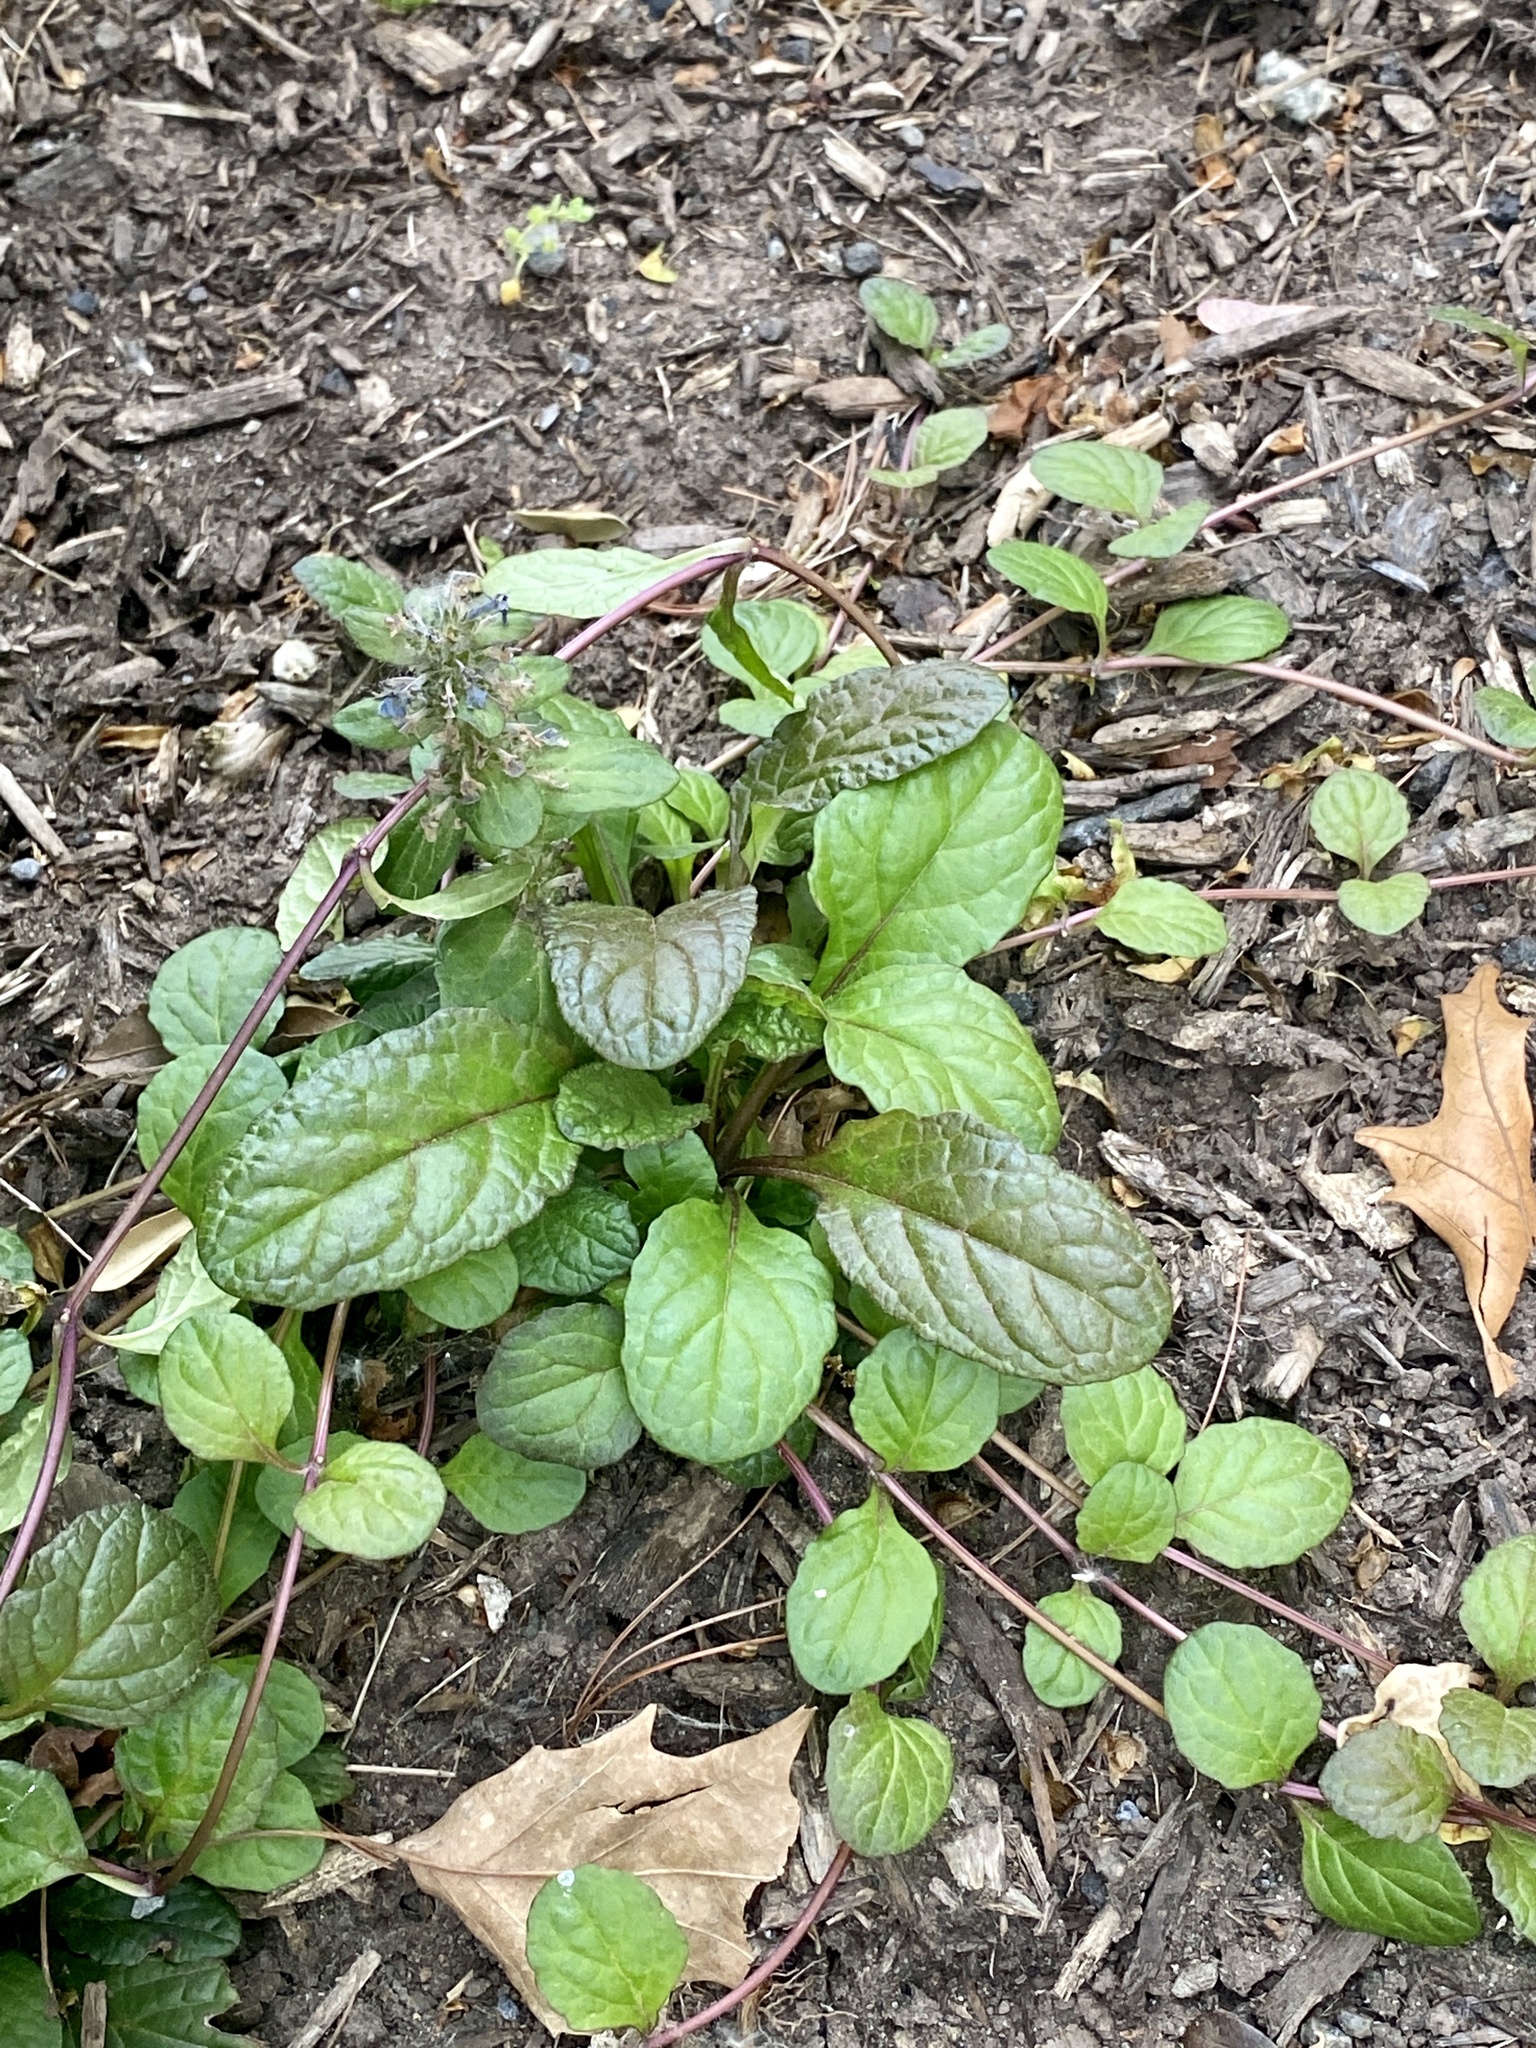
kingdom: Plantae
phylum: Tracheophyta
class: Magnoliopsida
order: Lamiales
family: Lamiaceae
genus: Ajuga
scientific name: Ajuga reptans
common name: Bugle
